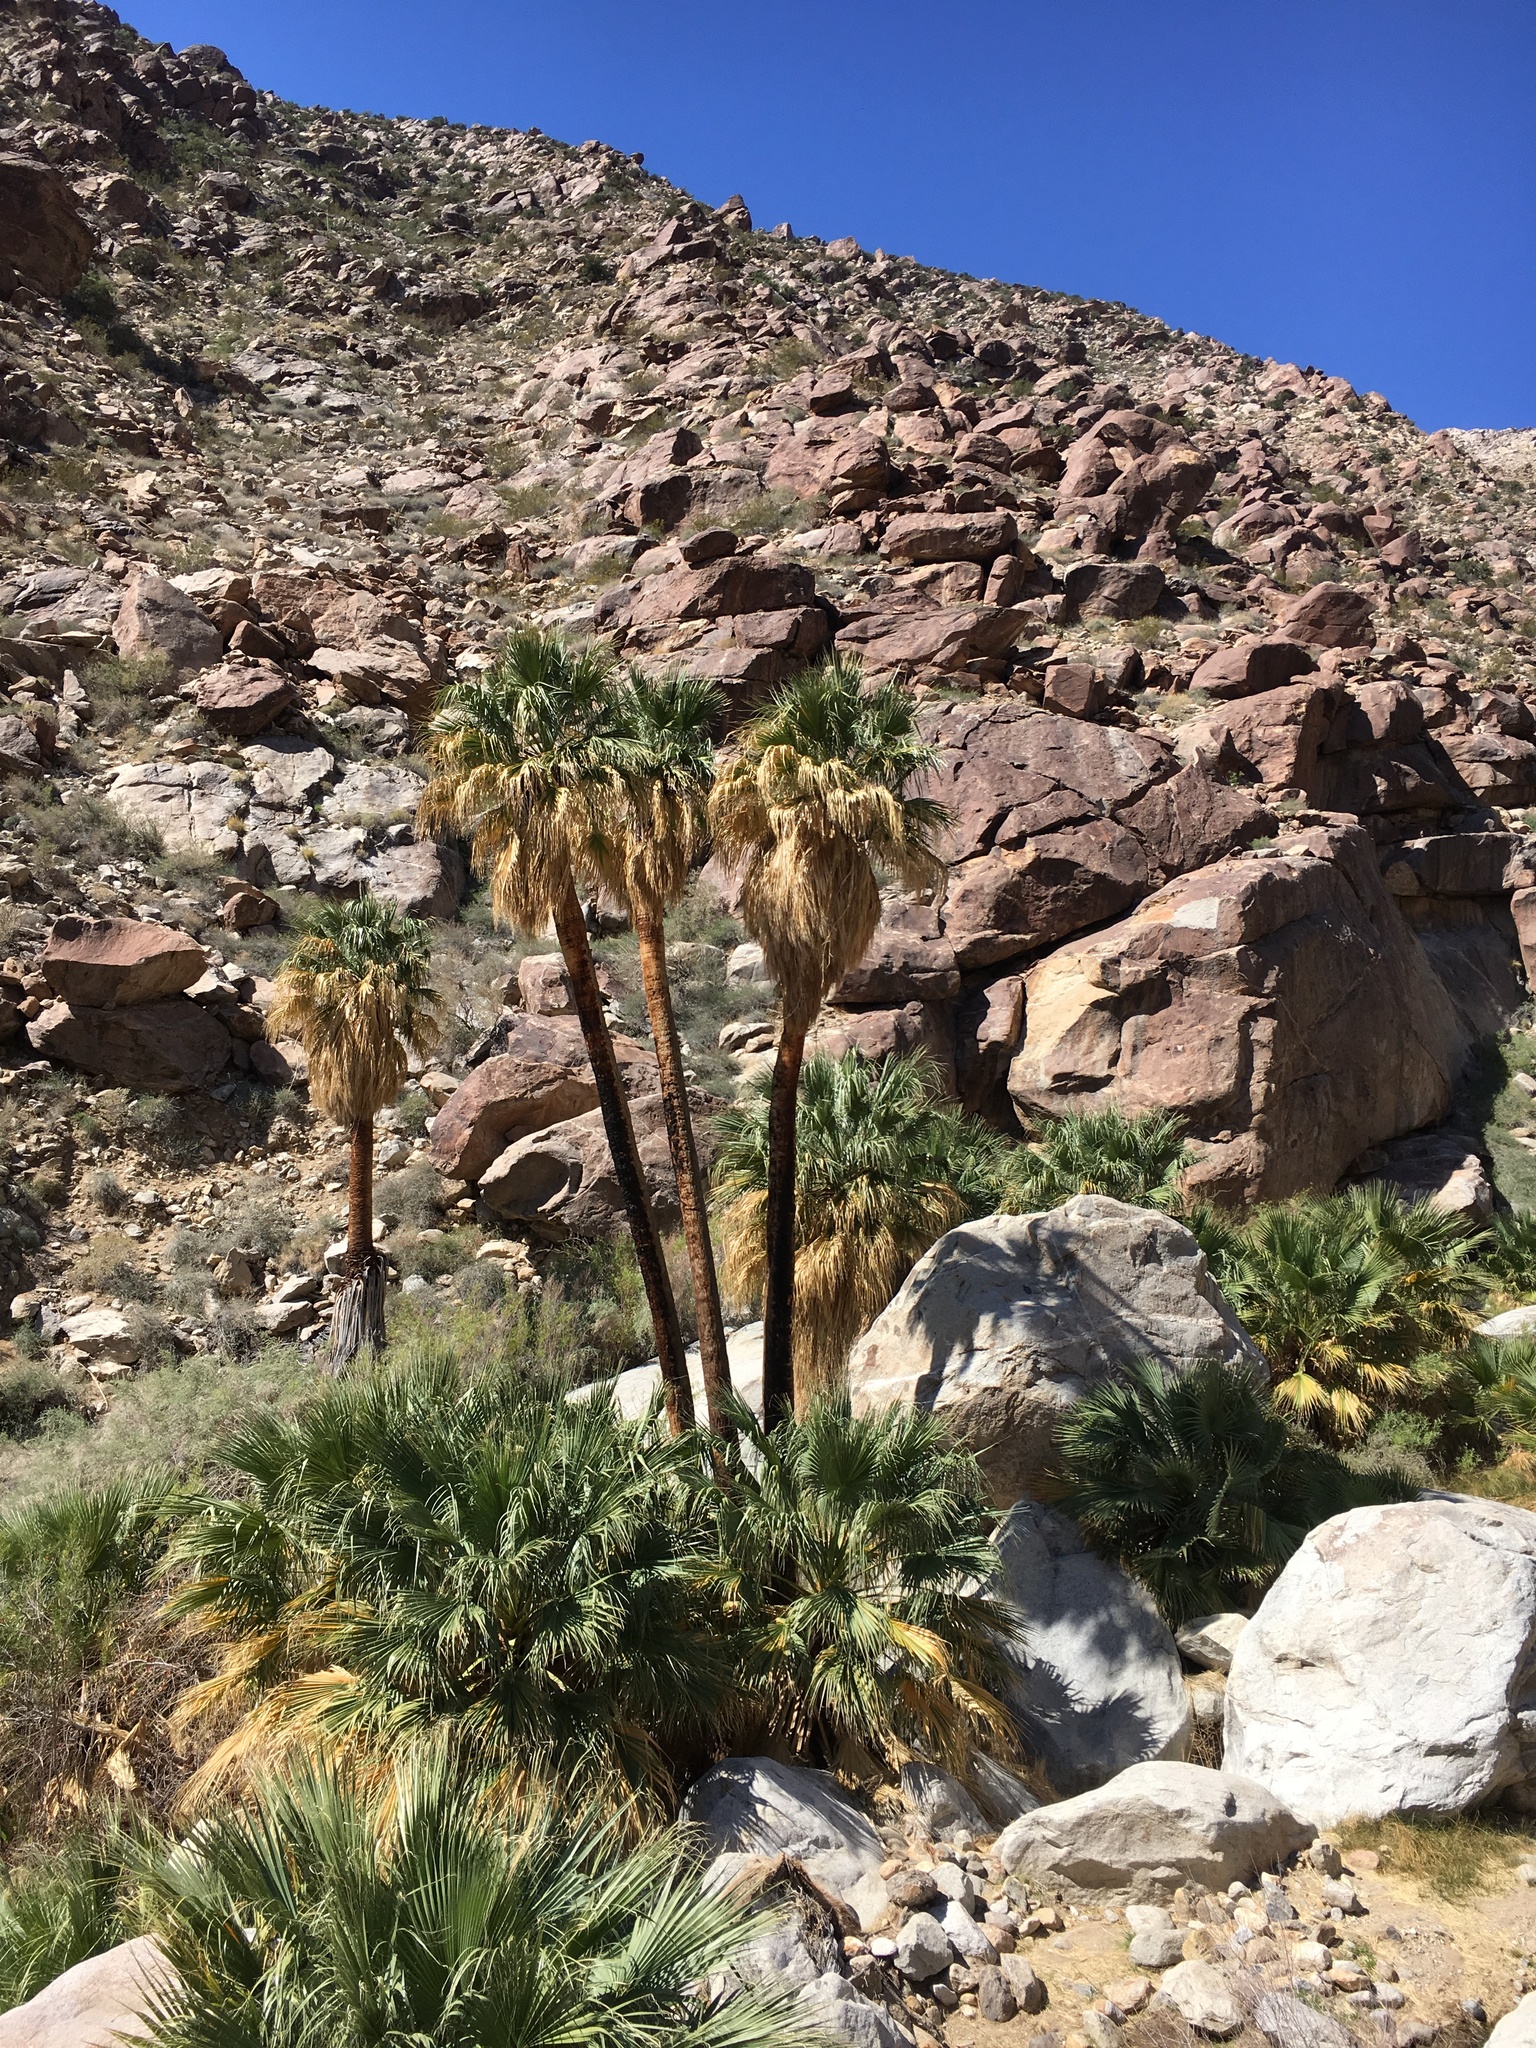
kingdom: Plantae
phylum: Tracheophyta
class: Liliopsida
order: Arecales
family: Arecaceae
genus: Washingtonia
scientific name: Washingtonia filifera
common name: California fan palm
